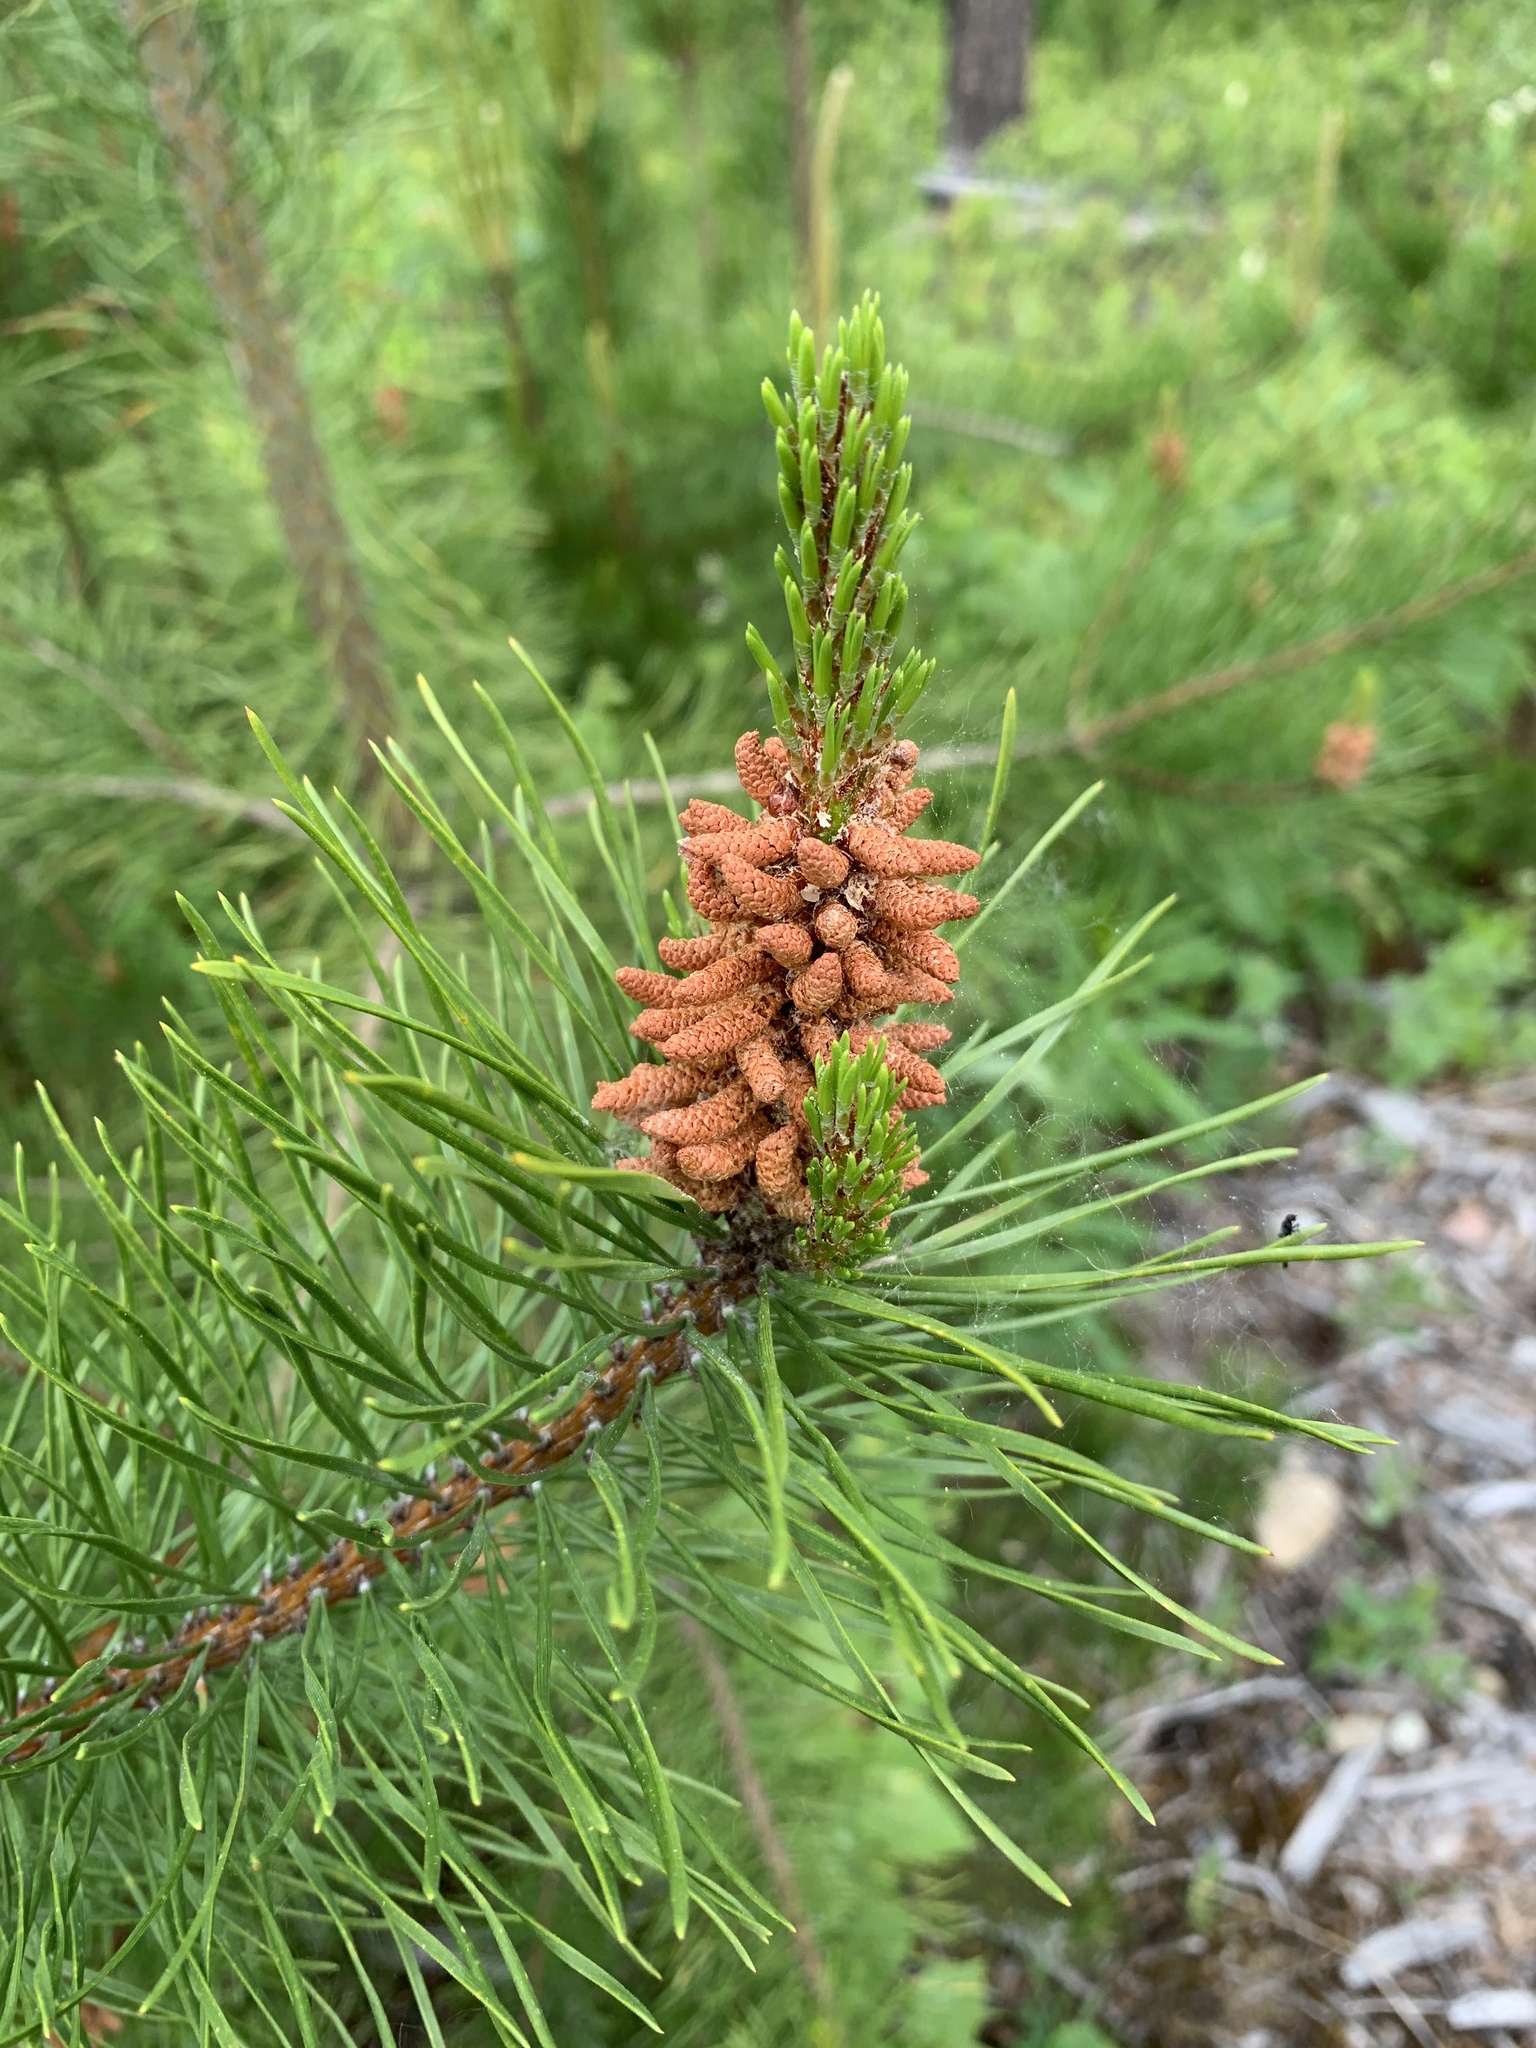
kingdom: Plantae
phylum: Tracheophyta
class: Pinopsida
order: Pinales
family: Pinaceae
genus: Pinus
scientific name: Pinus contorta
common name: Lodgepole pine
